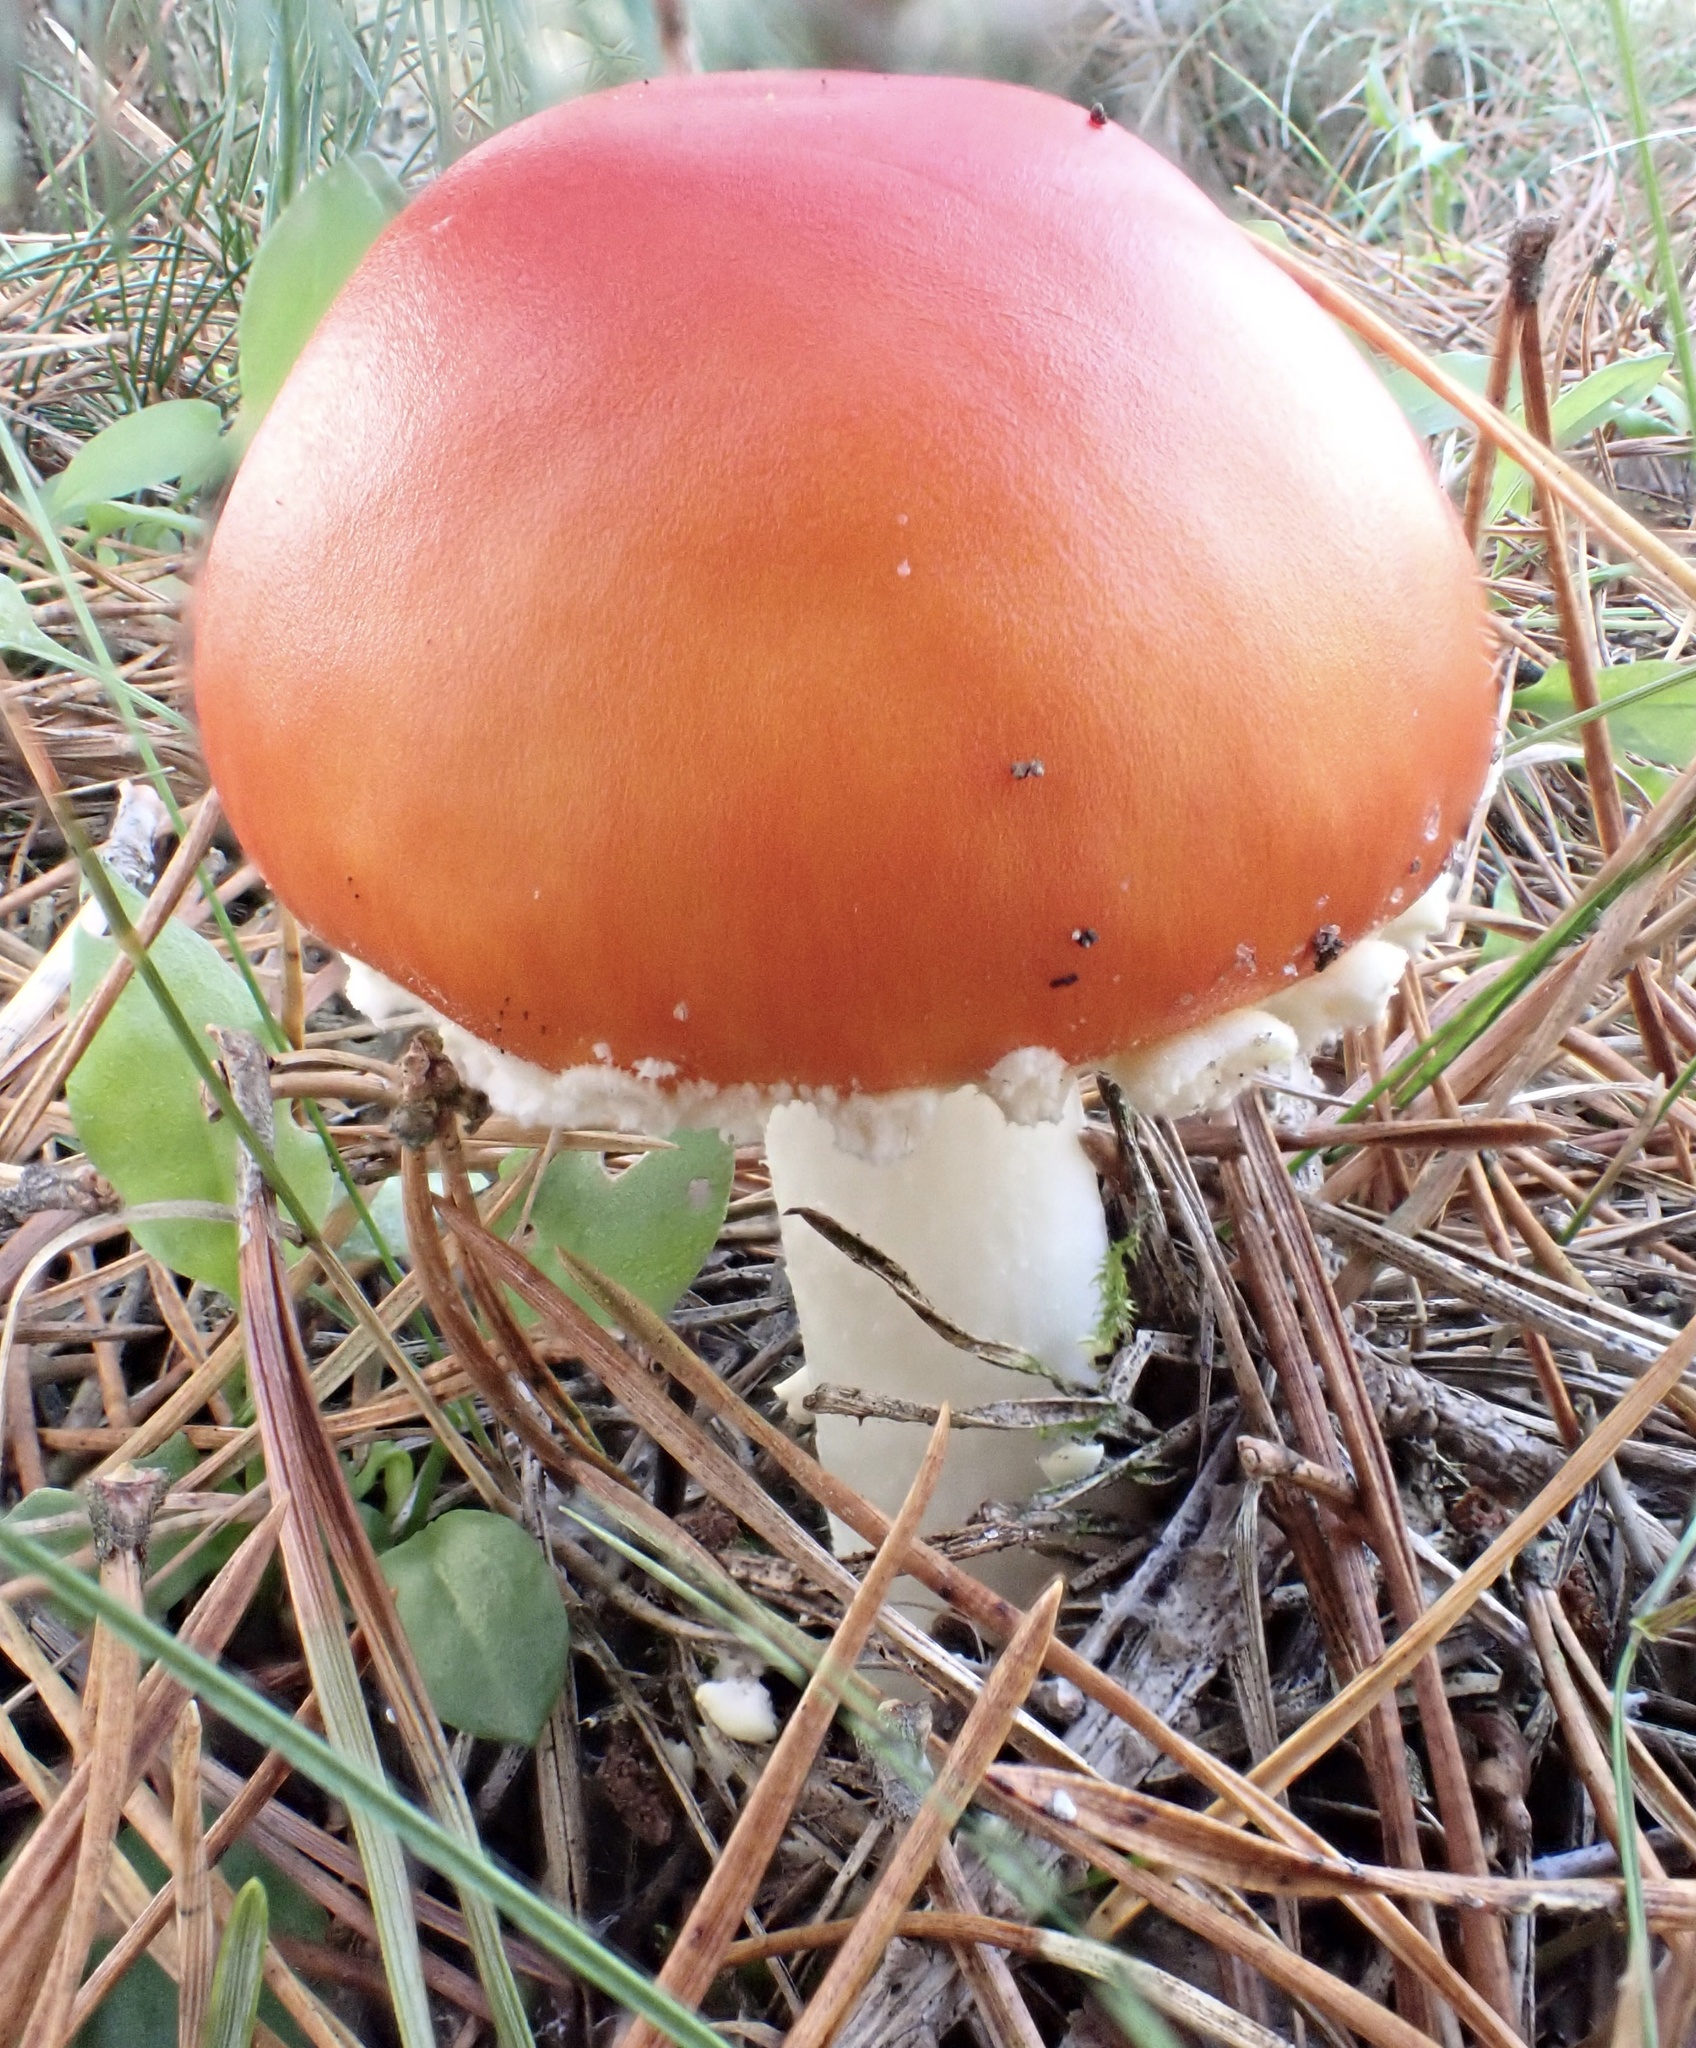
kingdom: Fungi
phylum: Basidiomycota
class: Agaricomycetes
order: Agaricales
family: Amanitaceae
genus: Amanita
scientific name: Amanita muscaria
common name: Fly agaric
